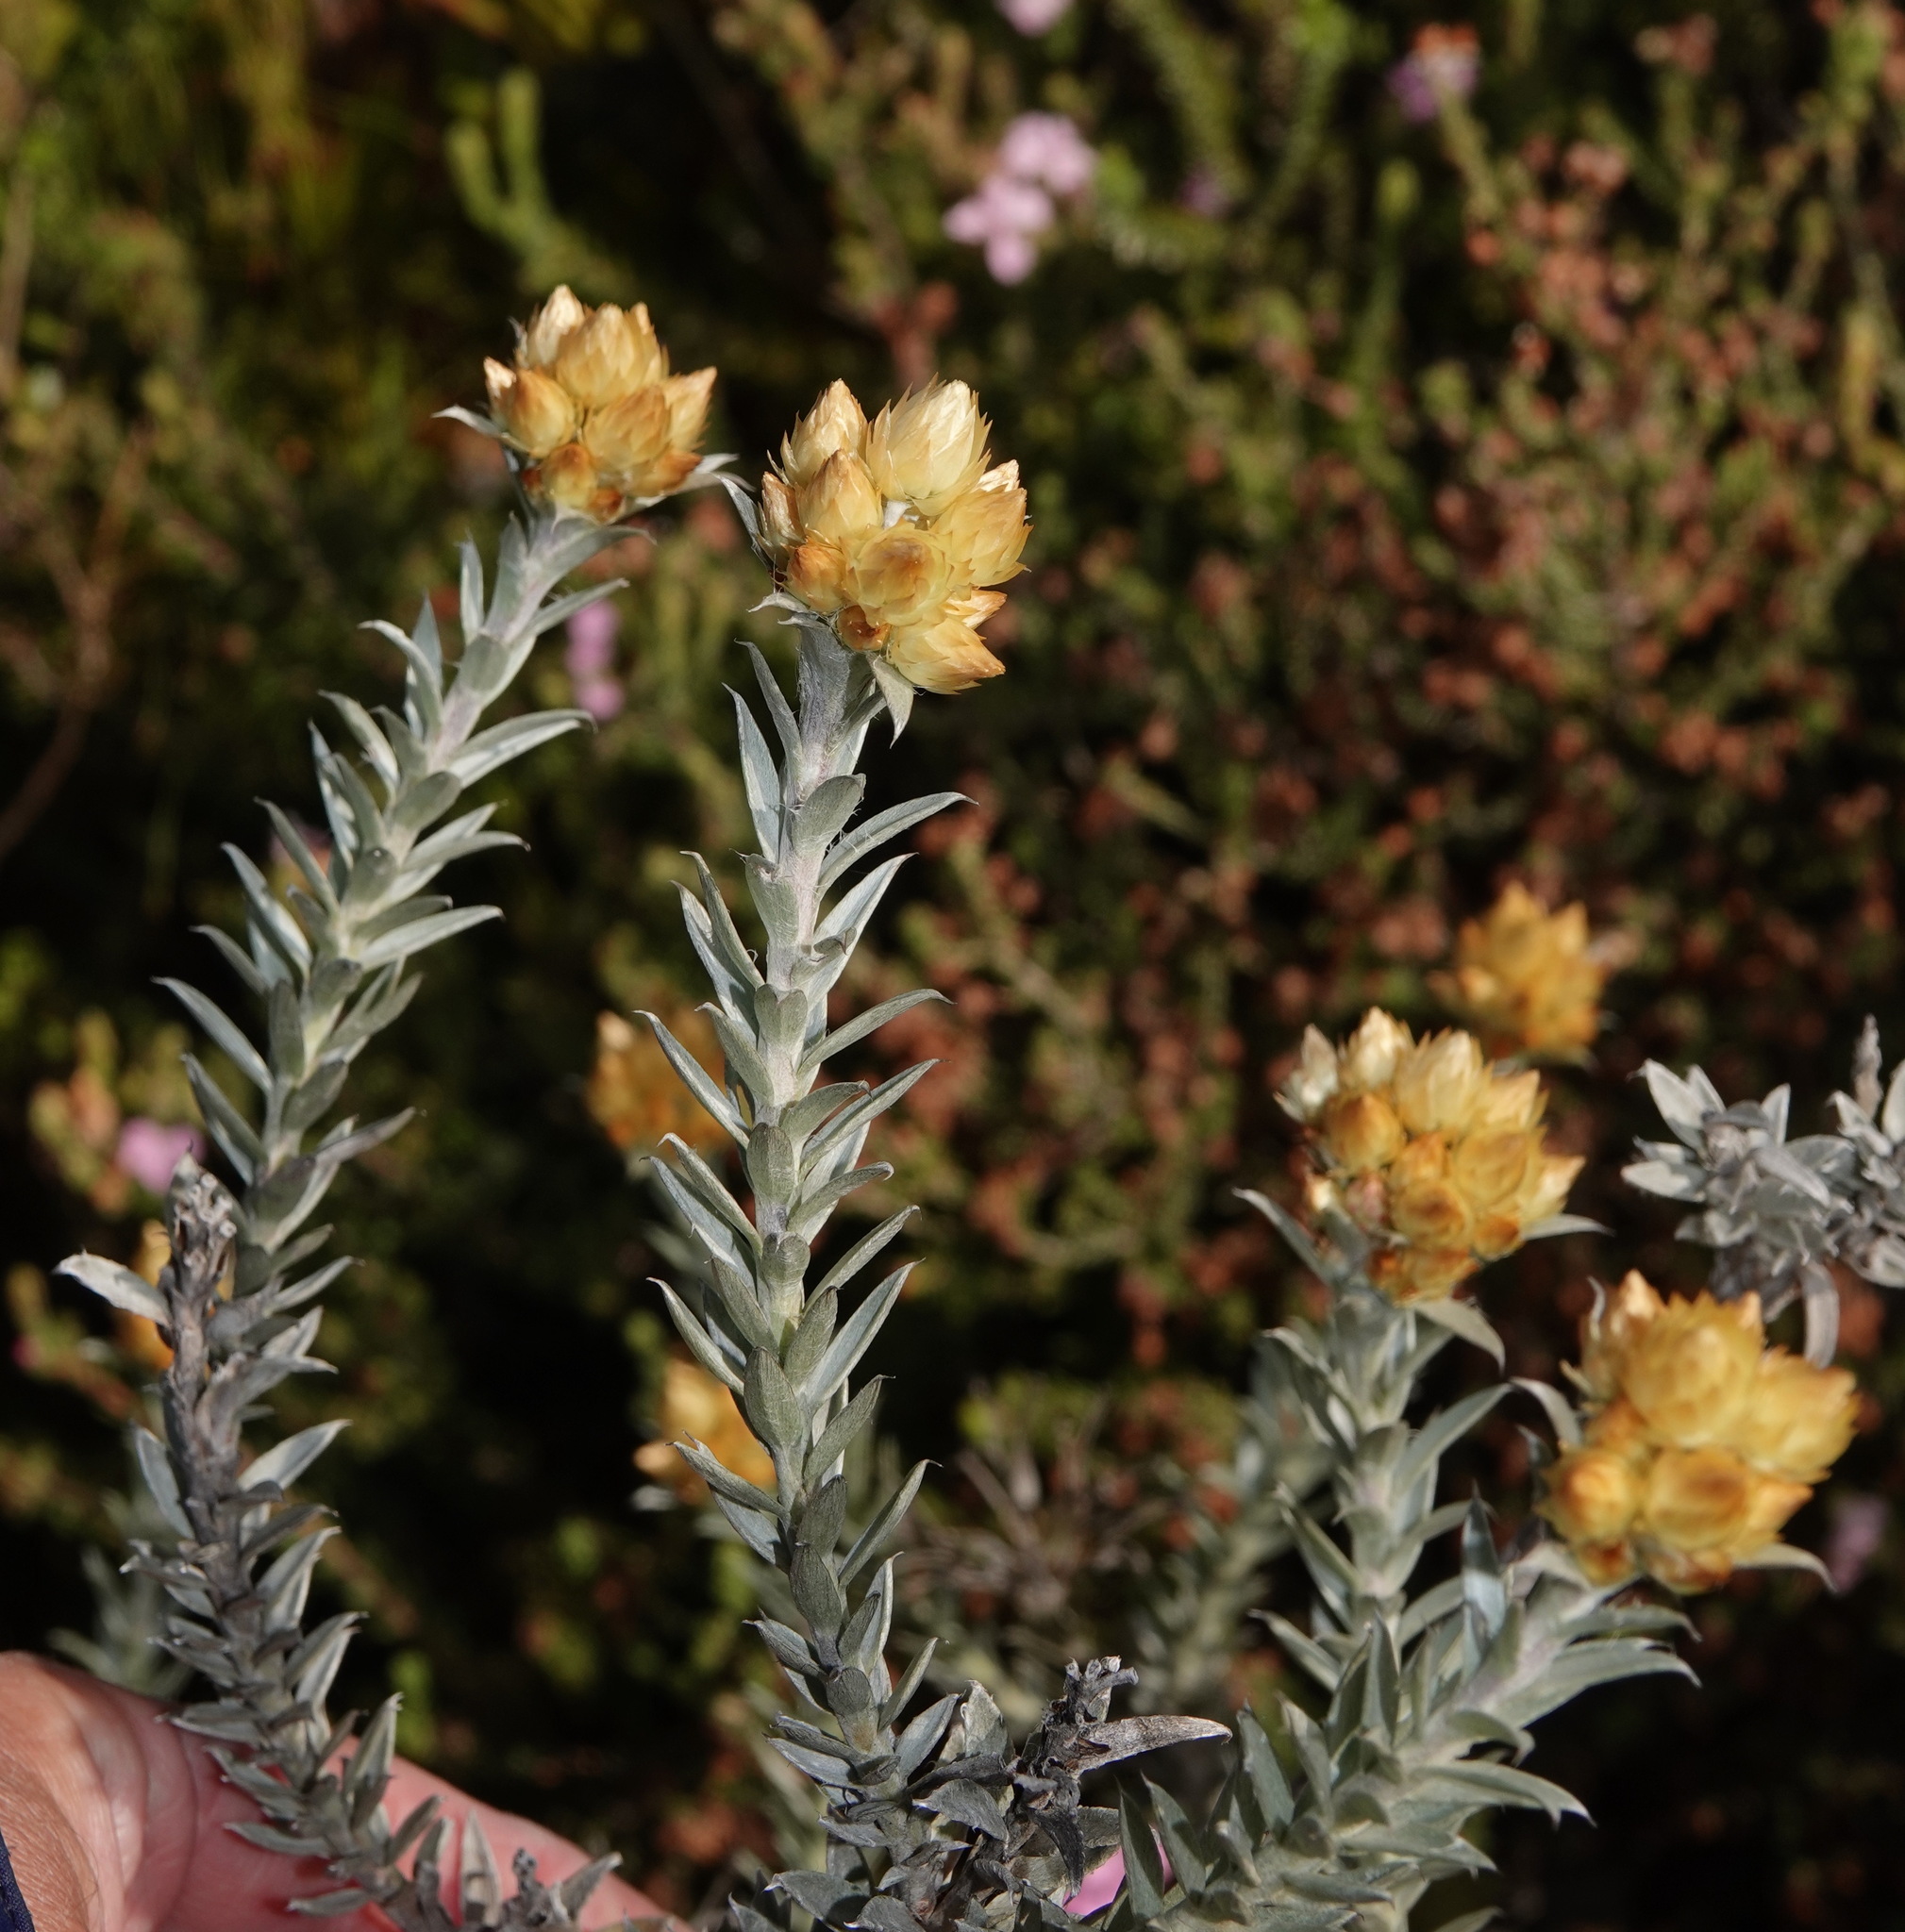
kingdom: Plantae
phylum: Tracheophyta
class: Magnoliopsida
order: Asterales
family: Asteraceae
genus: Achyranthemum
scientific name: Achyranthemum mucronatum
